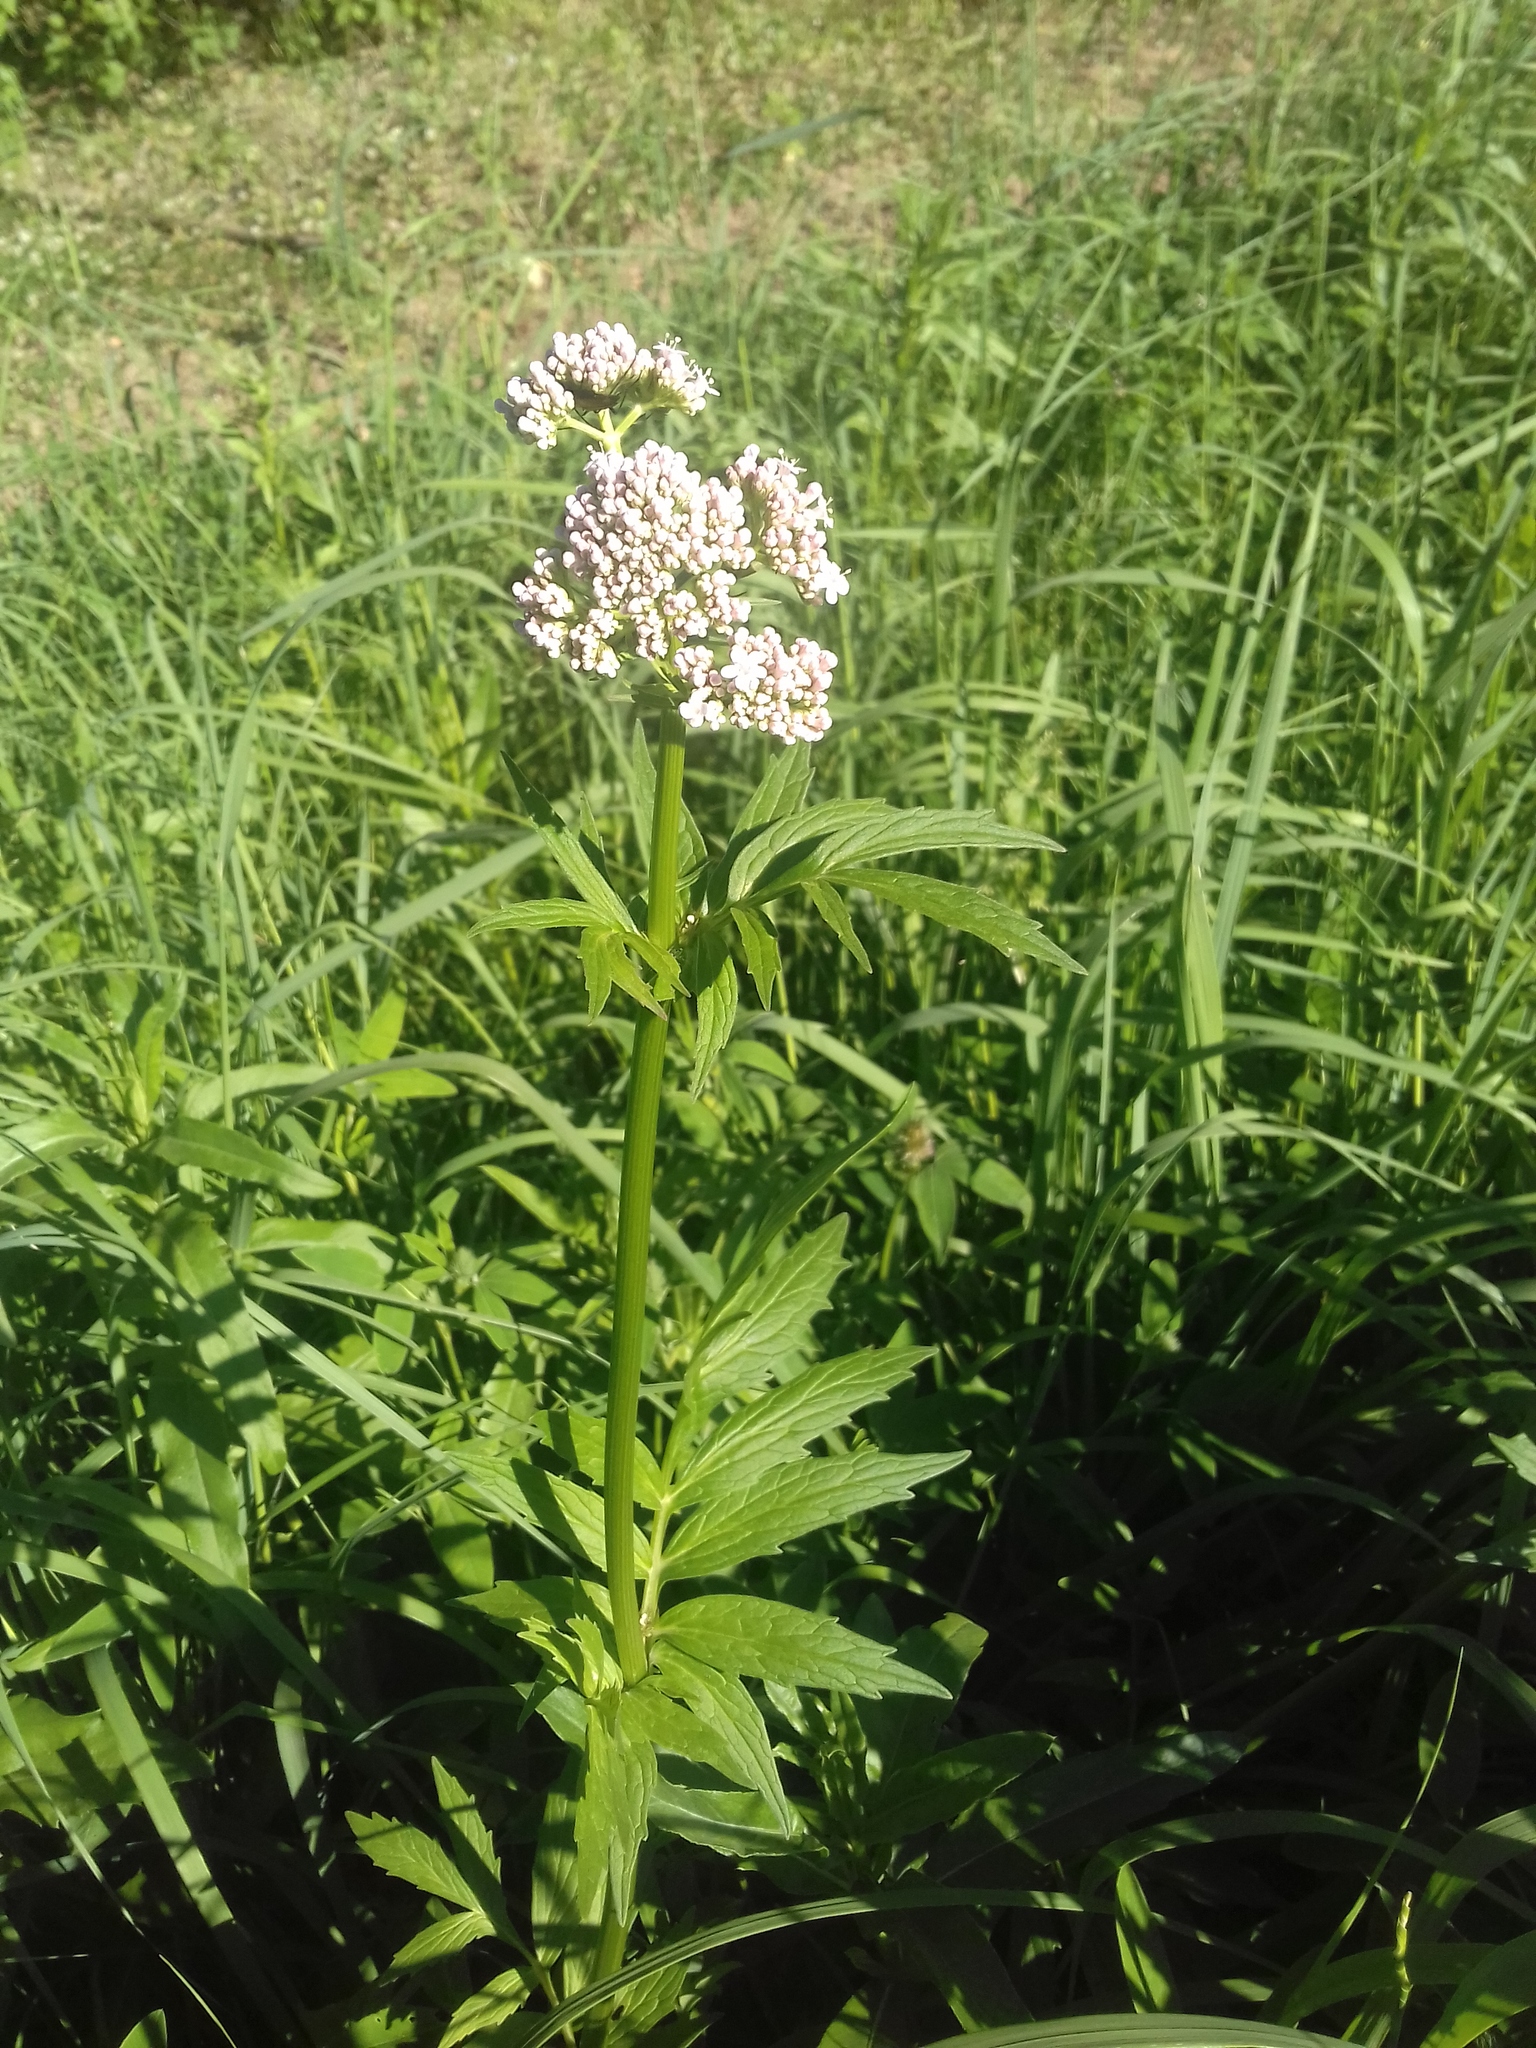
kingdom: Plantae
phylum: Tracheophyta
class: Magnoliopsida
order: Dipsacales
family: Caprifoliaceae
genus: Valeriana
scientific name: Valeriana officinalis
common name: Common valerian
